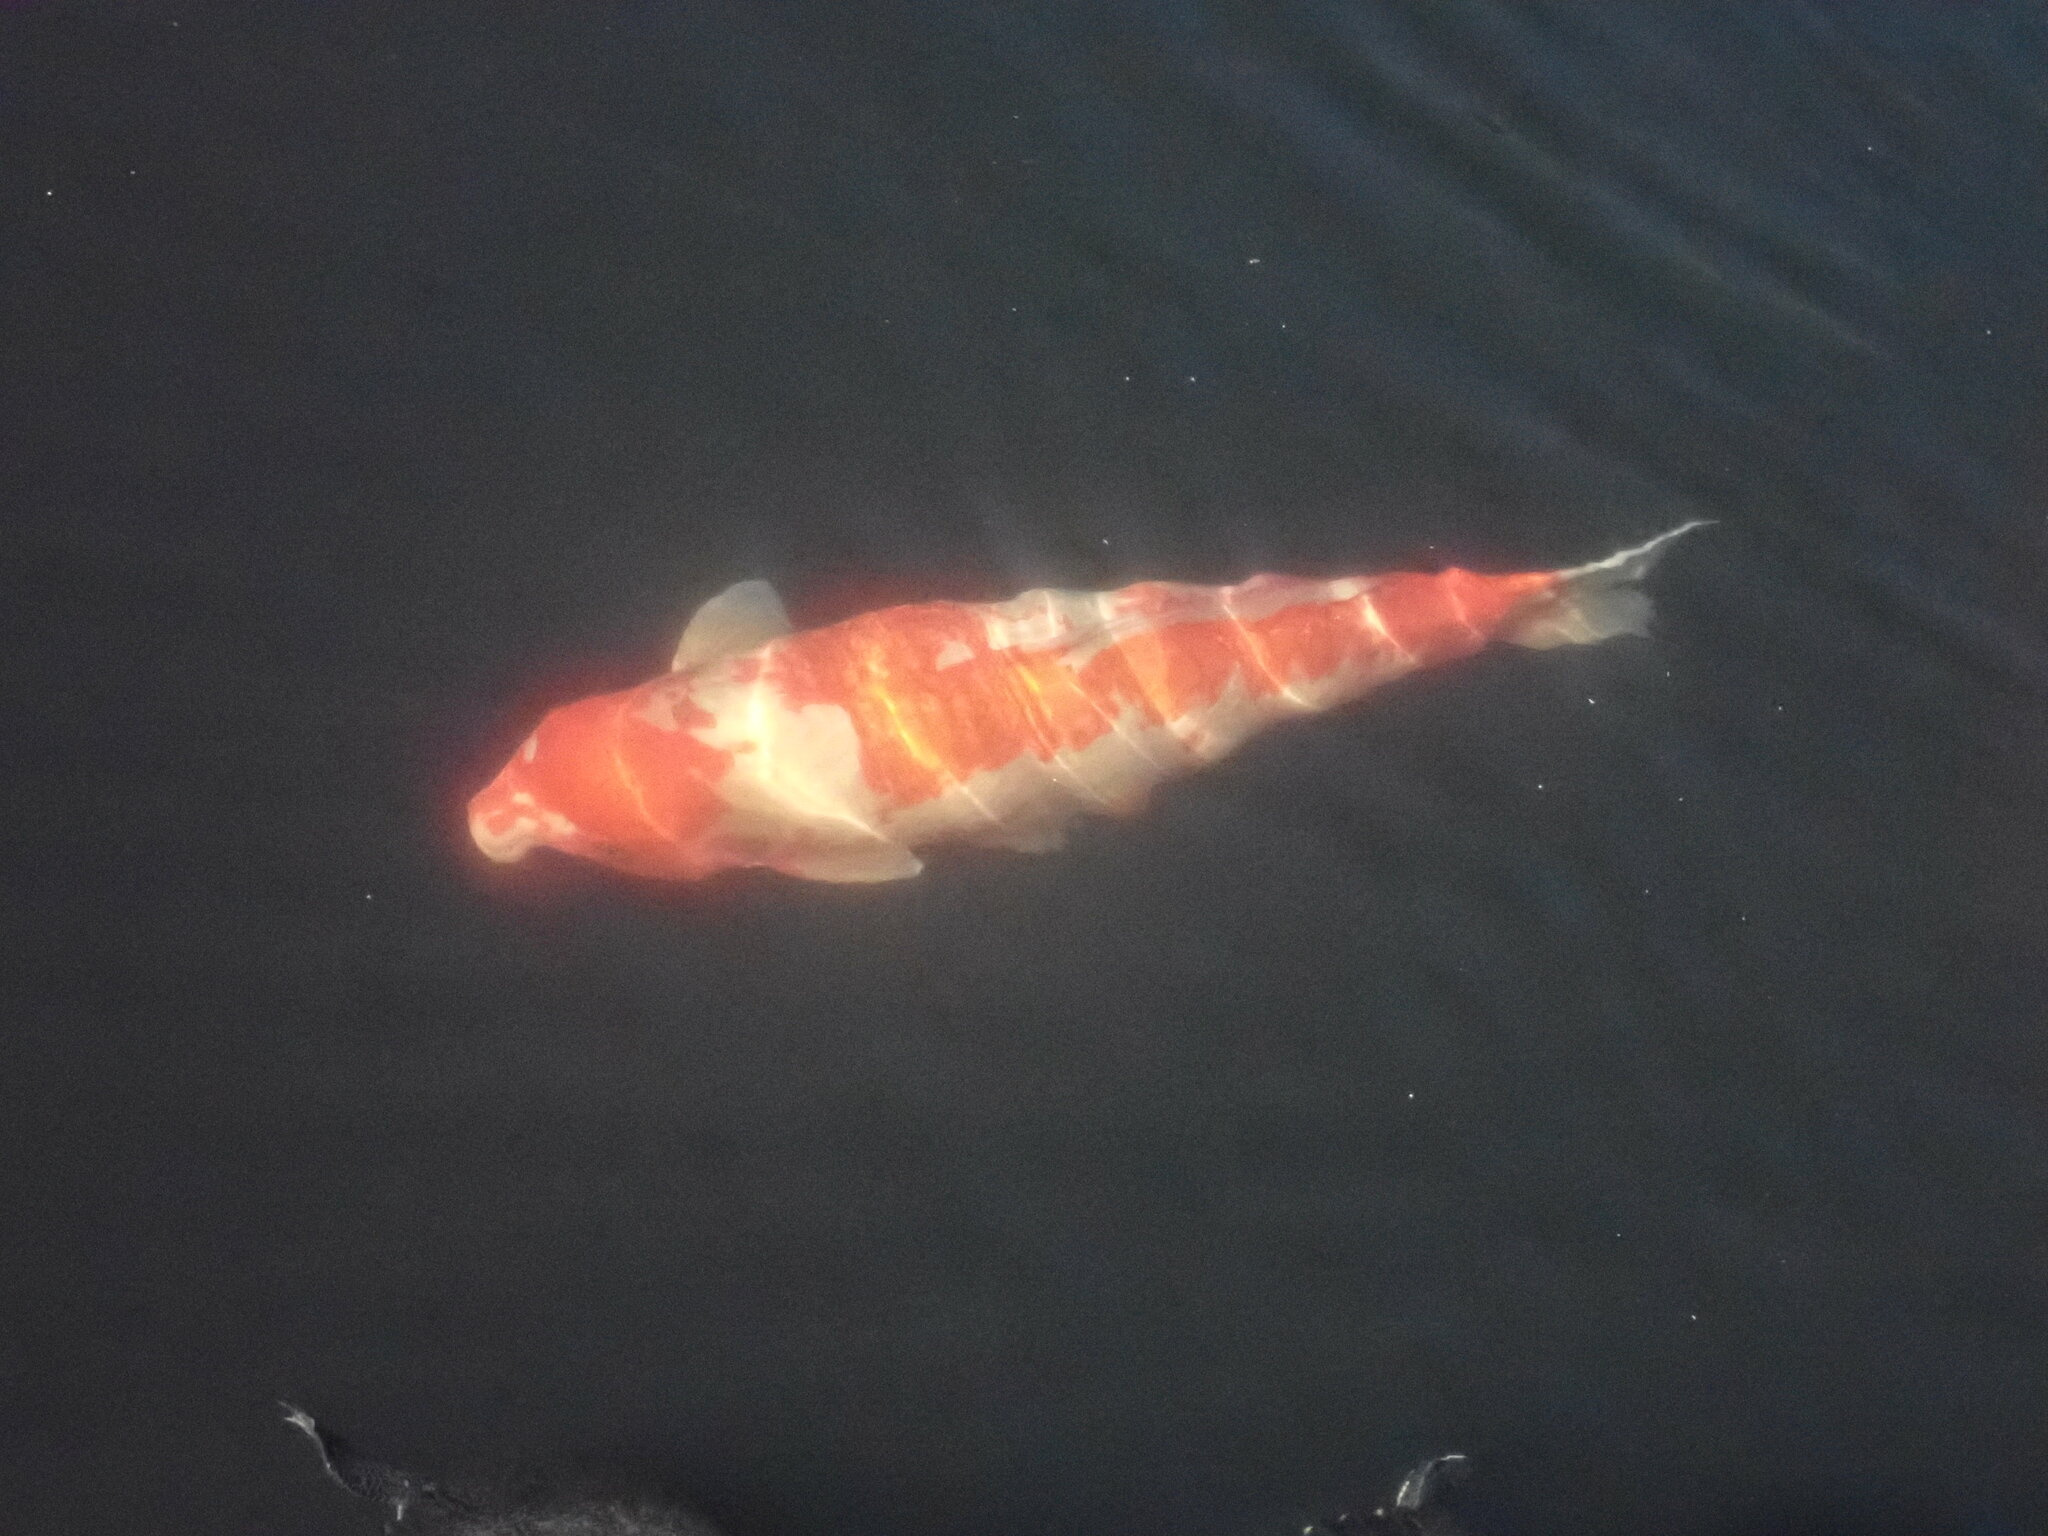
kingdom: Animalia
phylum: Chordata
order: Cypriniformes
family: Cyprinidae
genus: Cyprinus
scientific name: Cyprinus rubrofuscus
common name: Koi
